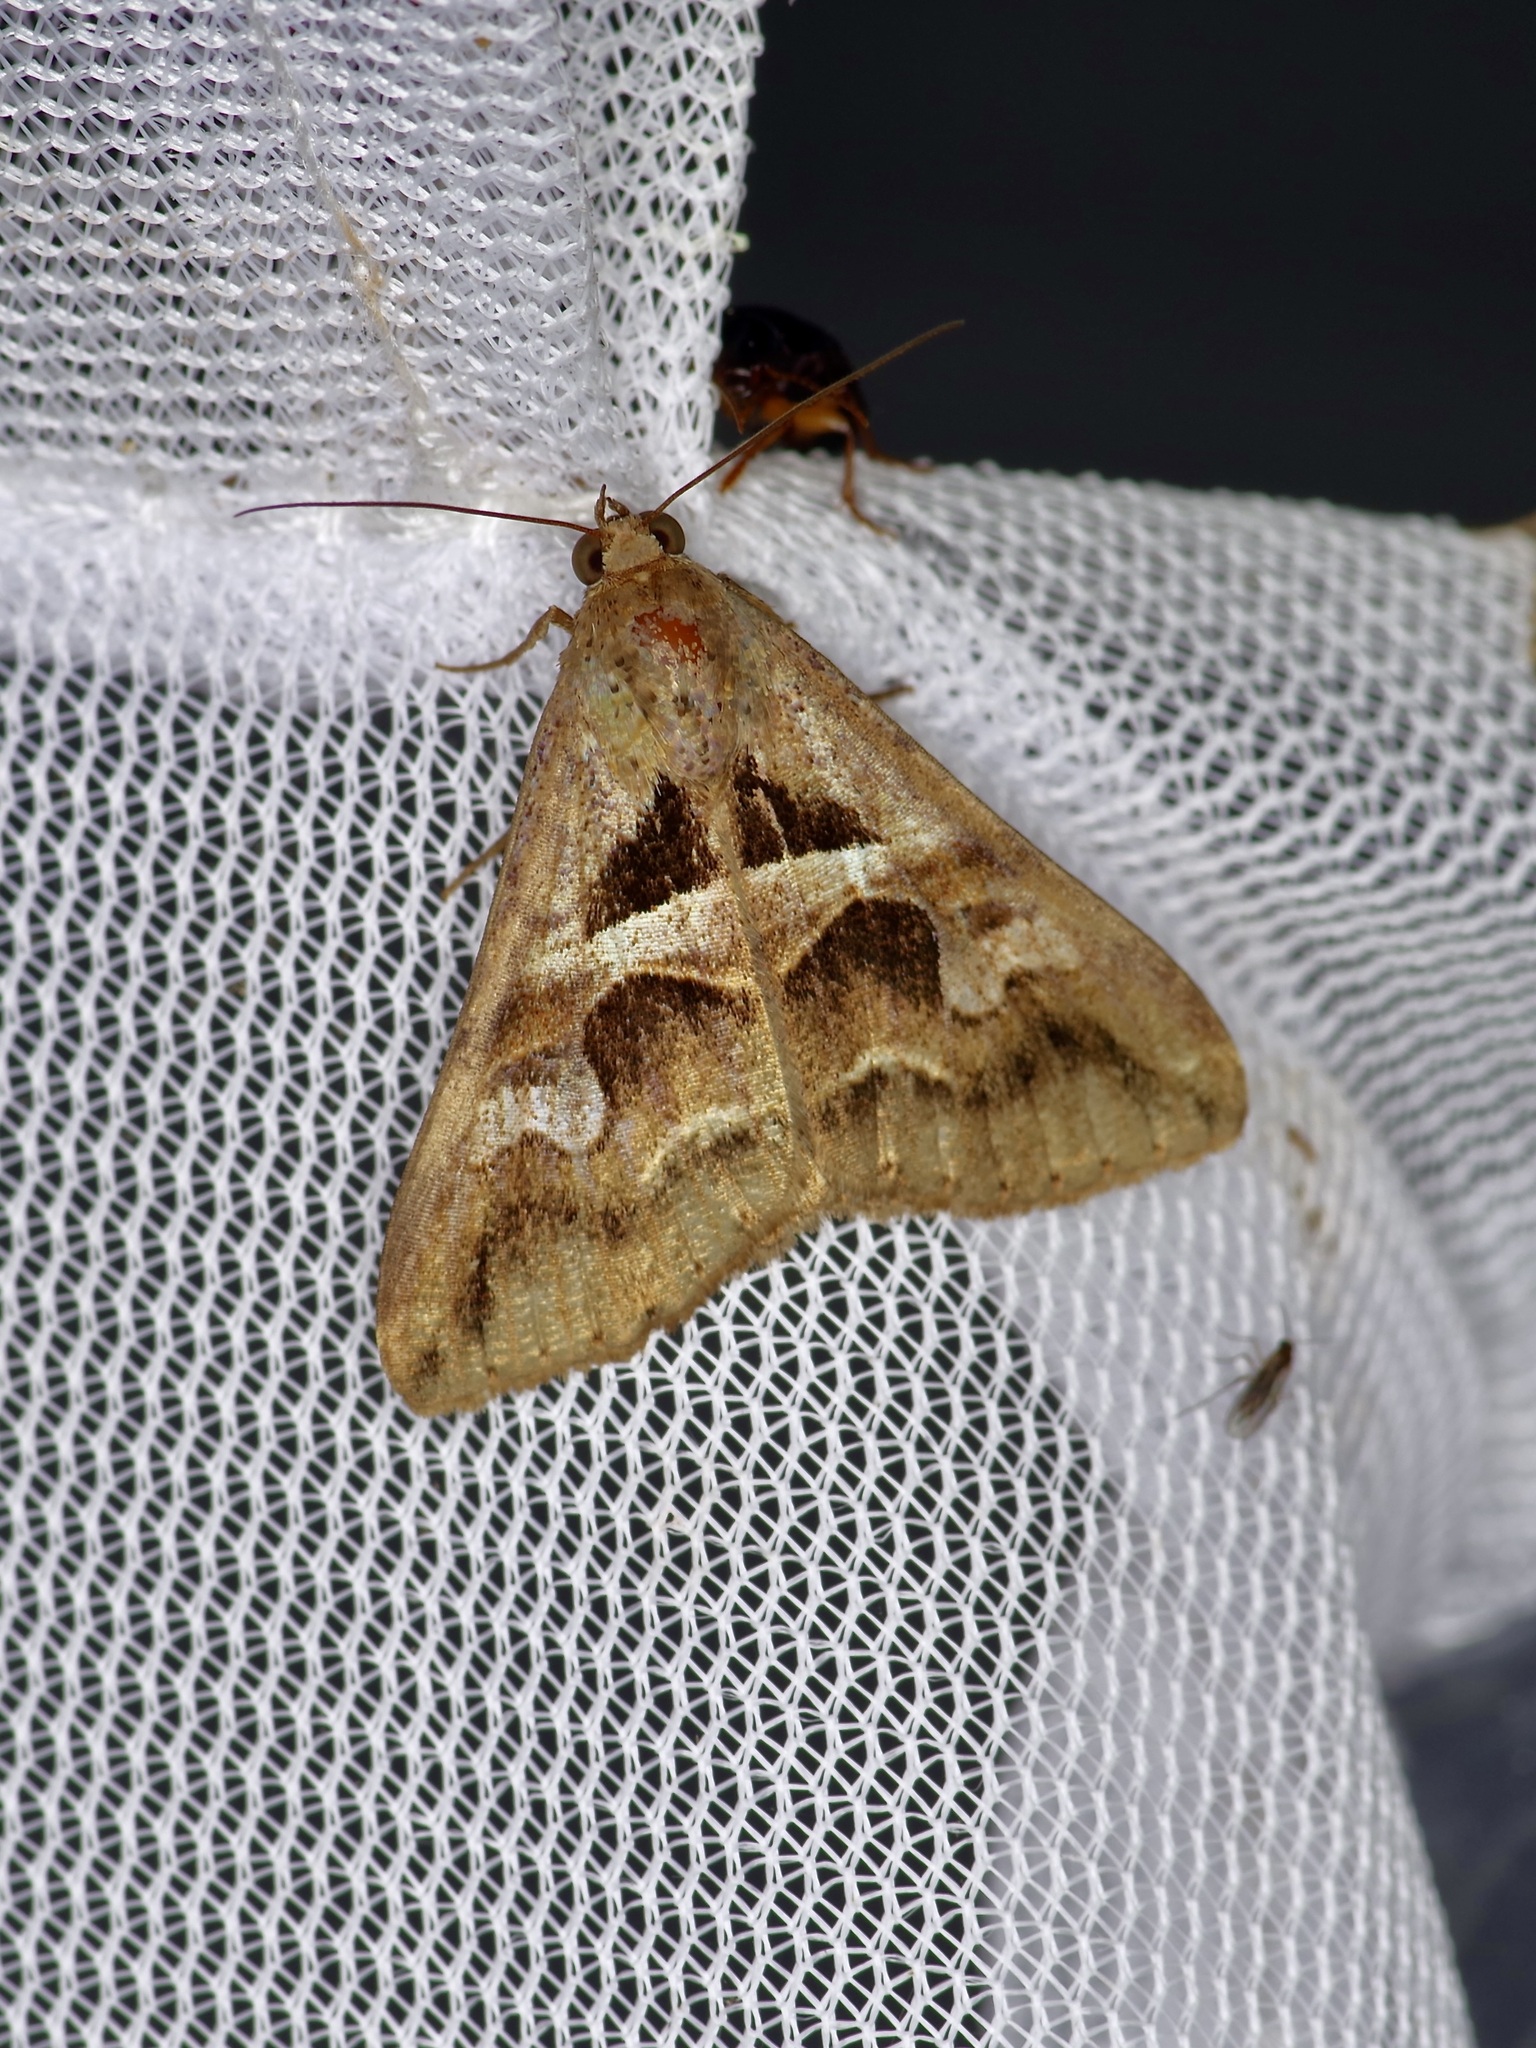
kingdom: Animalia
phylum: Arthropoda
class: Insecta
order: Lepidoptera
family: Erebidae
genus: Melipotis
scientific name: Melipotis cellaris
